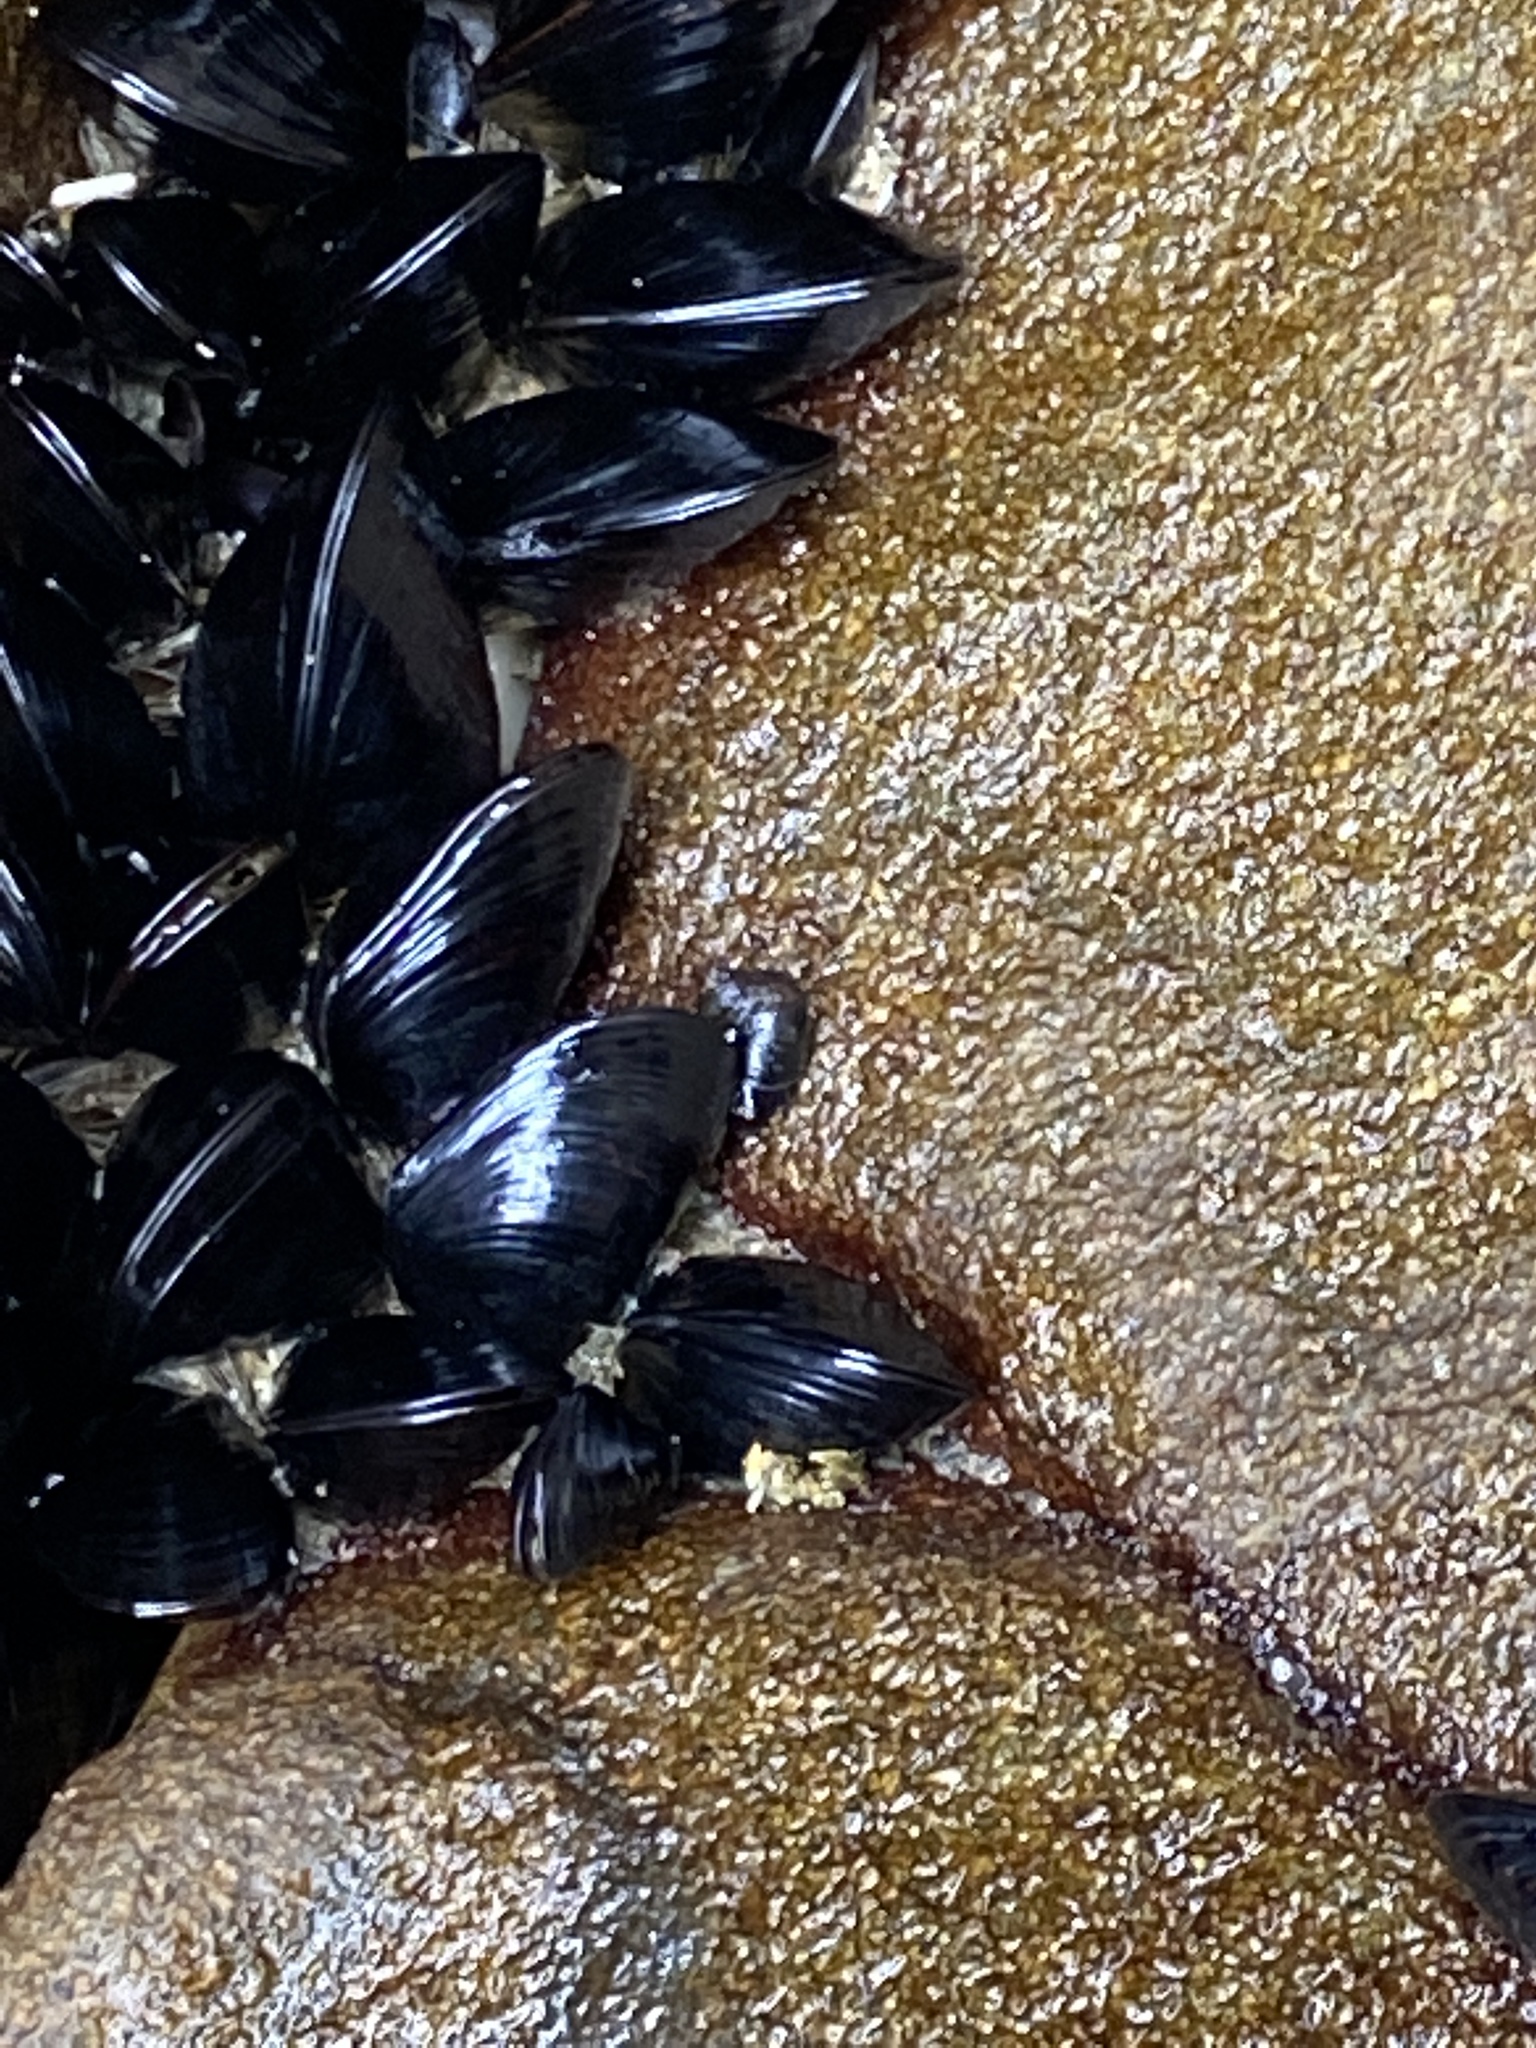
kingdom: Animalia
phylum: Mollusca
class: Bivalvia
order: Mytilida
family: Mytilidae
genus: Xenostrobus
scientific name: Xenostrobus neozelanicus
